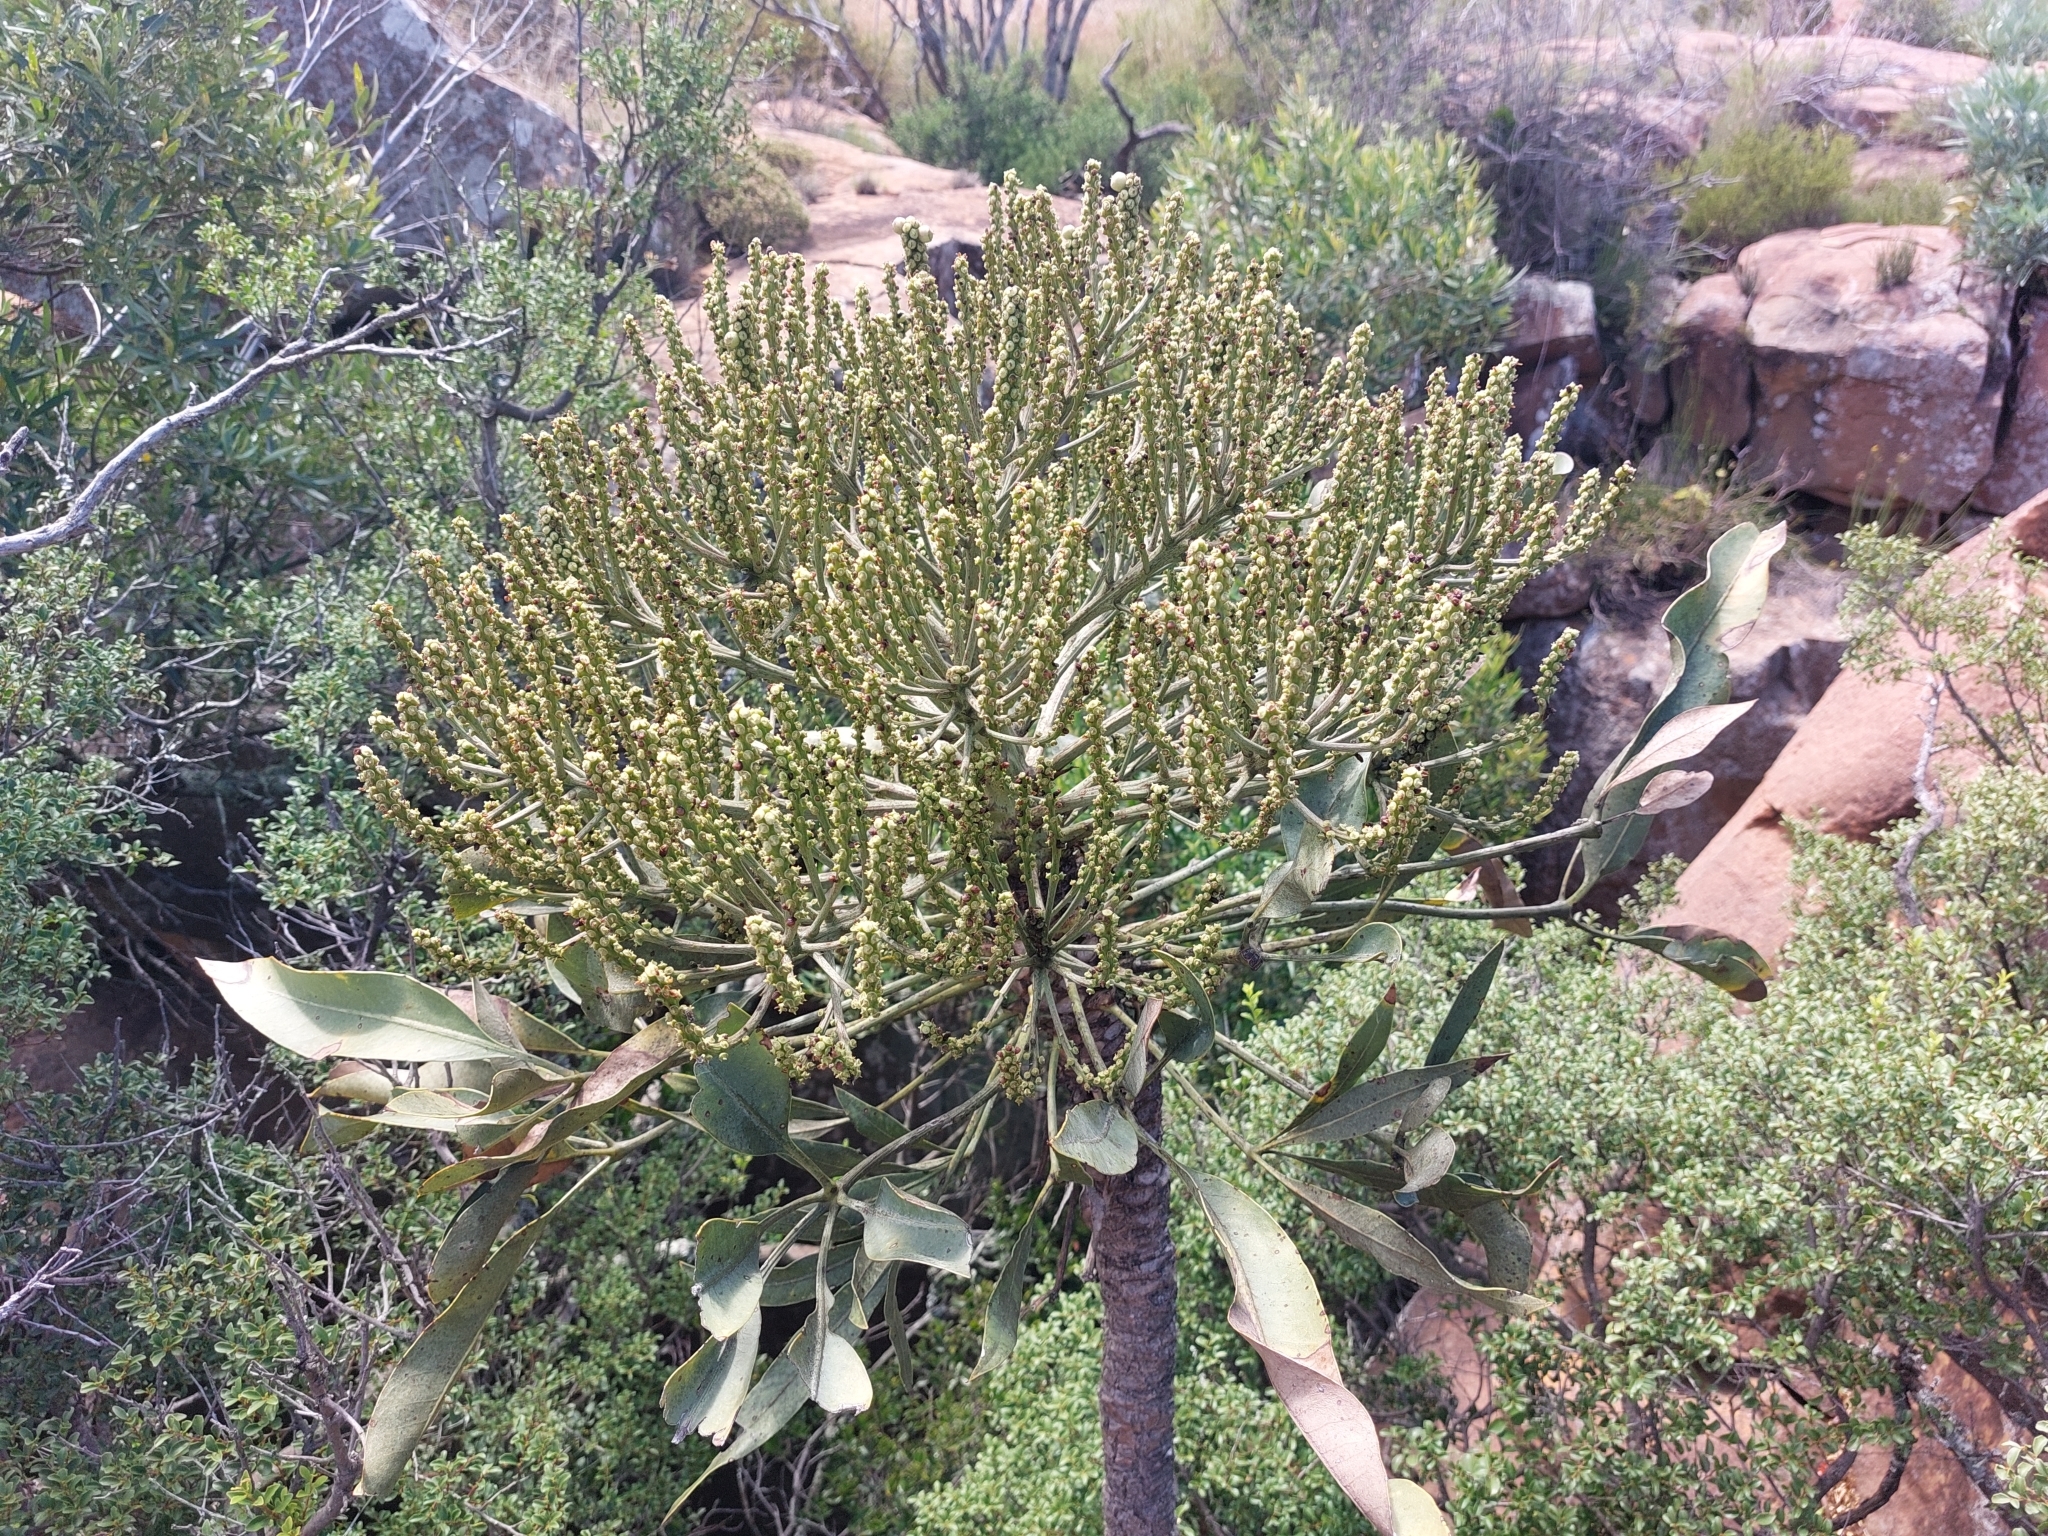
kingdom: Plantae
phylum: Tracheophyta
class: Magnoliopsida
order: Apiales
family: Araliaceae
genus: Cussonia
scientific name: Cussonia paniculata
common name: Cabbagetree
